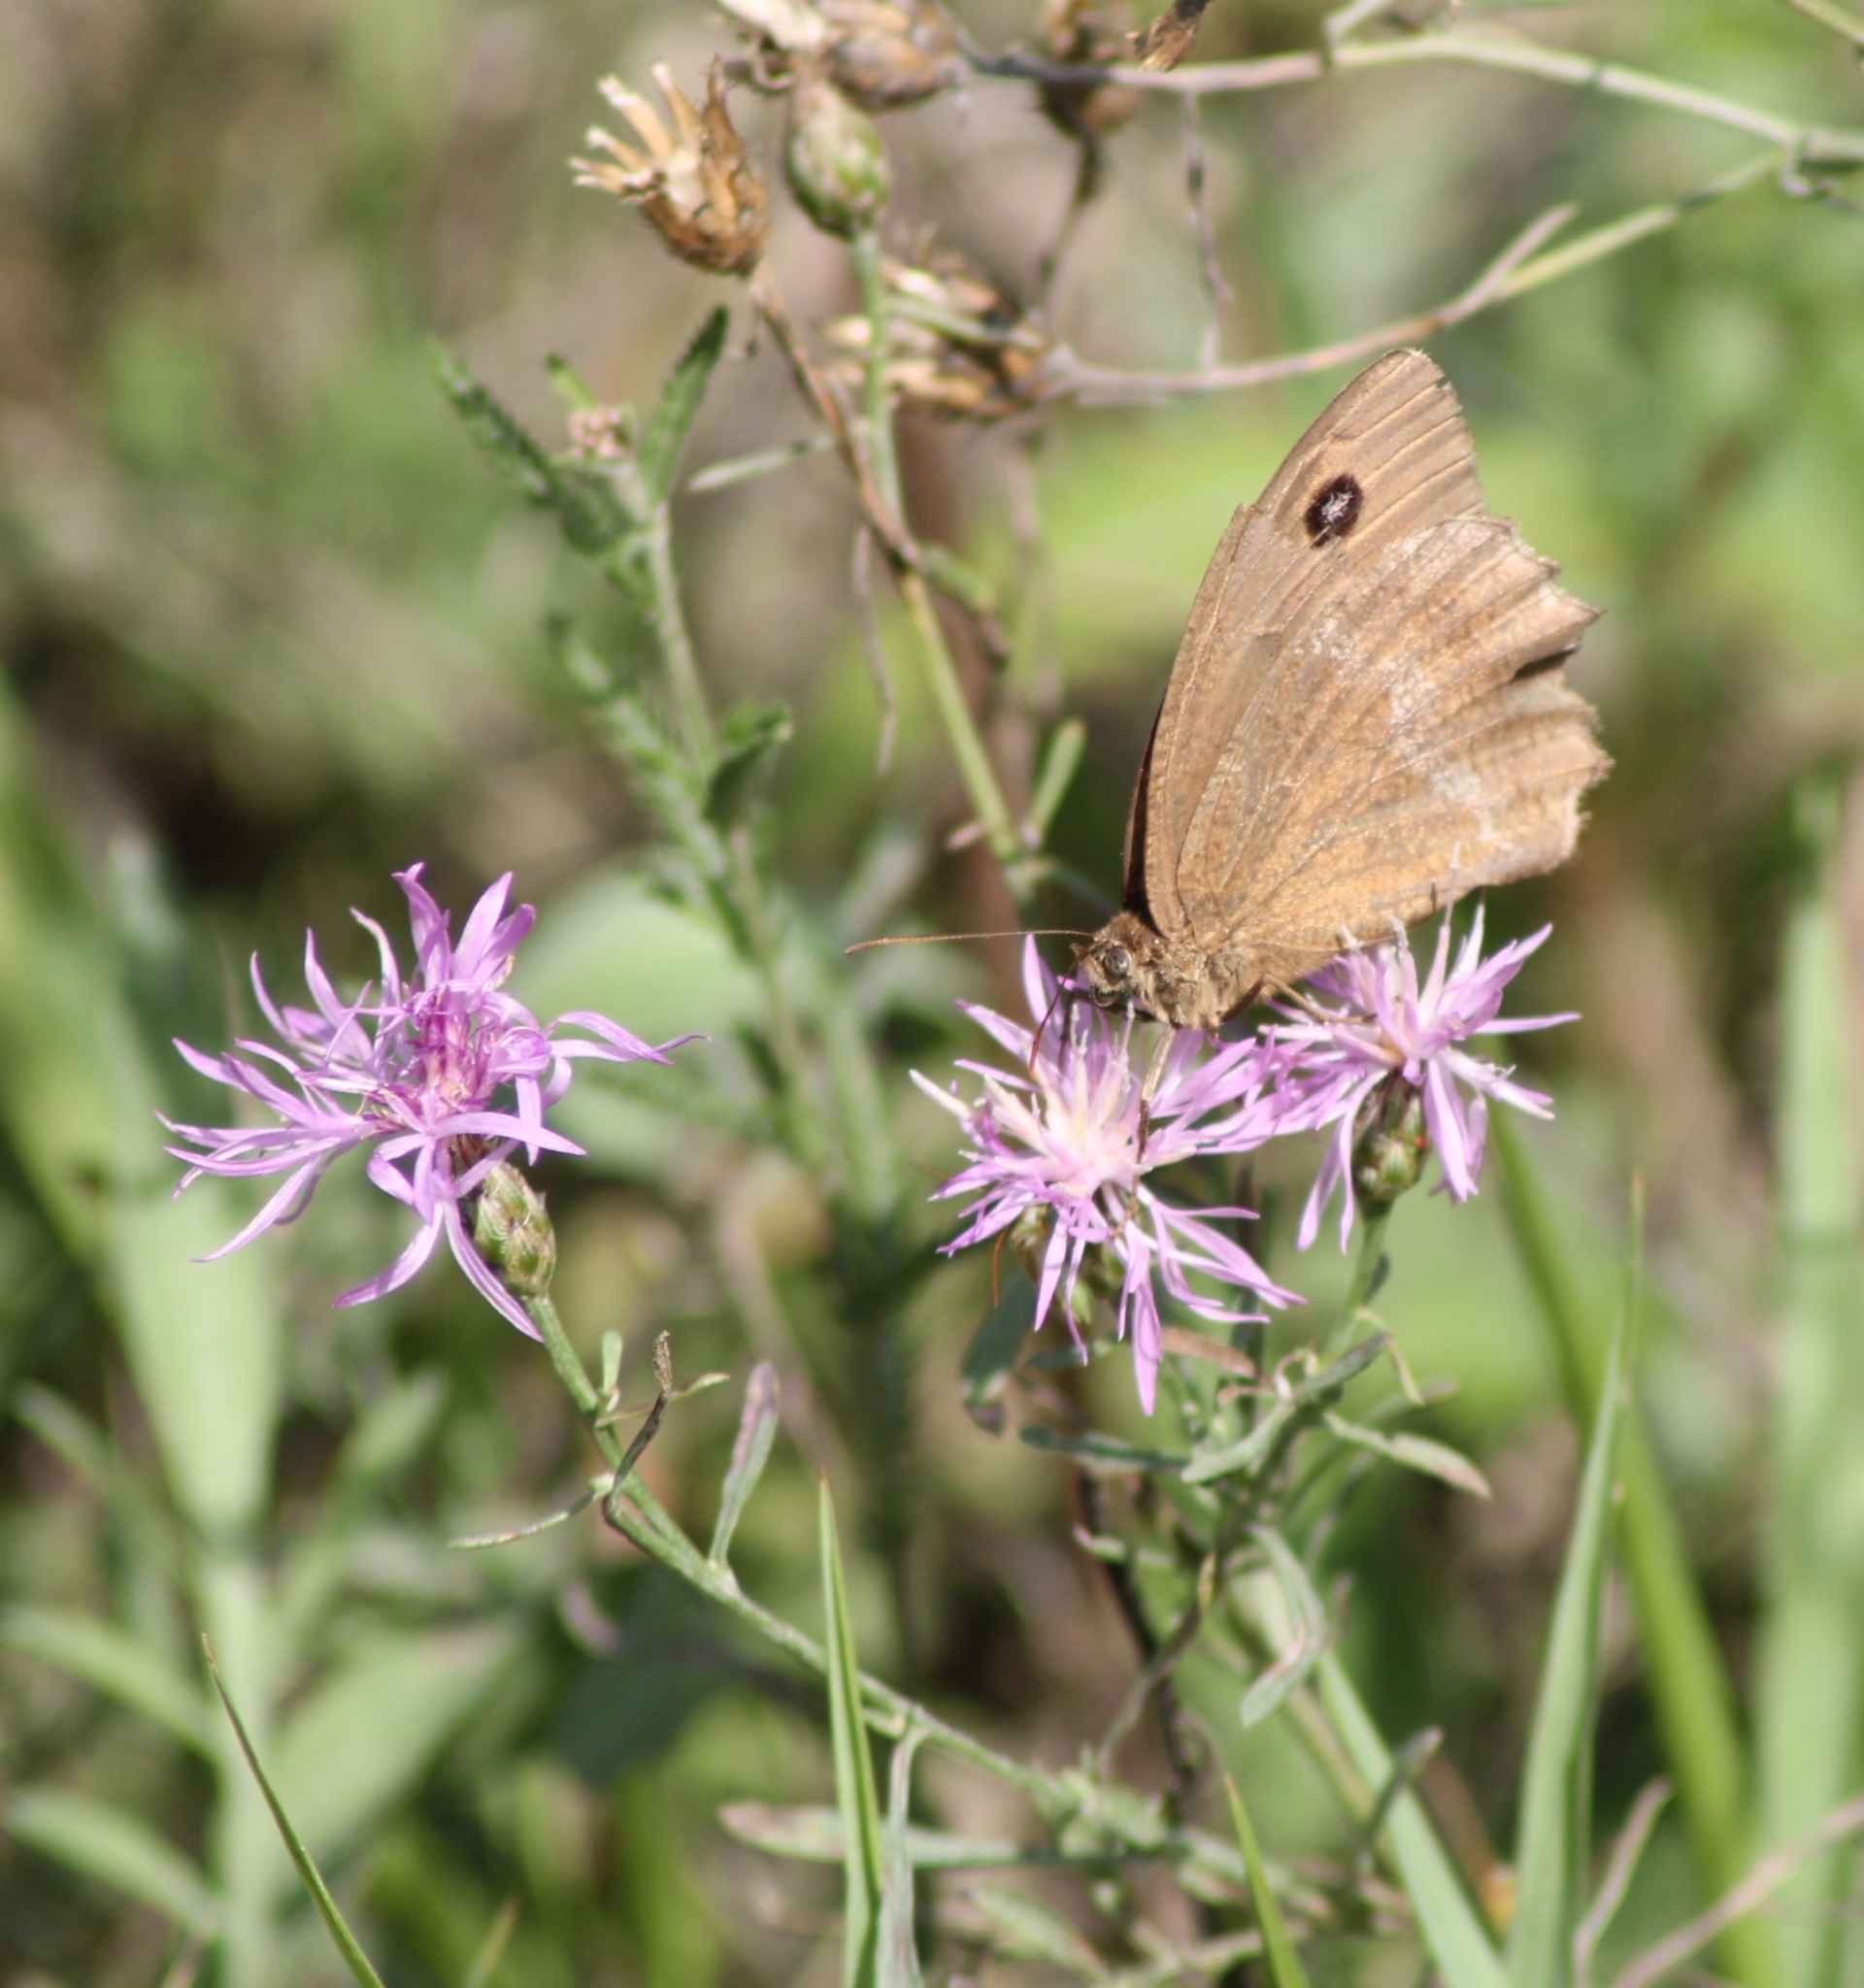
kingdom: Animalia
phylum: Arthropoda
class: Insecta
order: Lepidoptera
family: Nymphalidae
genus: Minois
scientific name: Minois dryas
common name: Dryad
